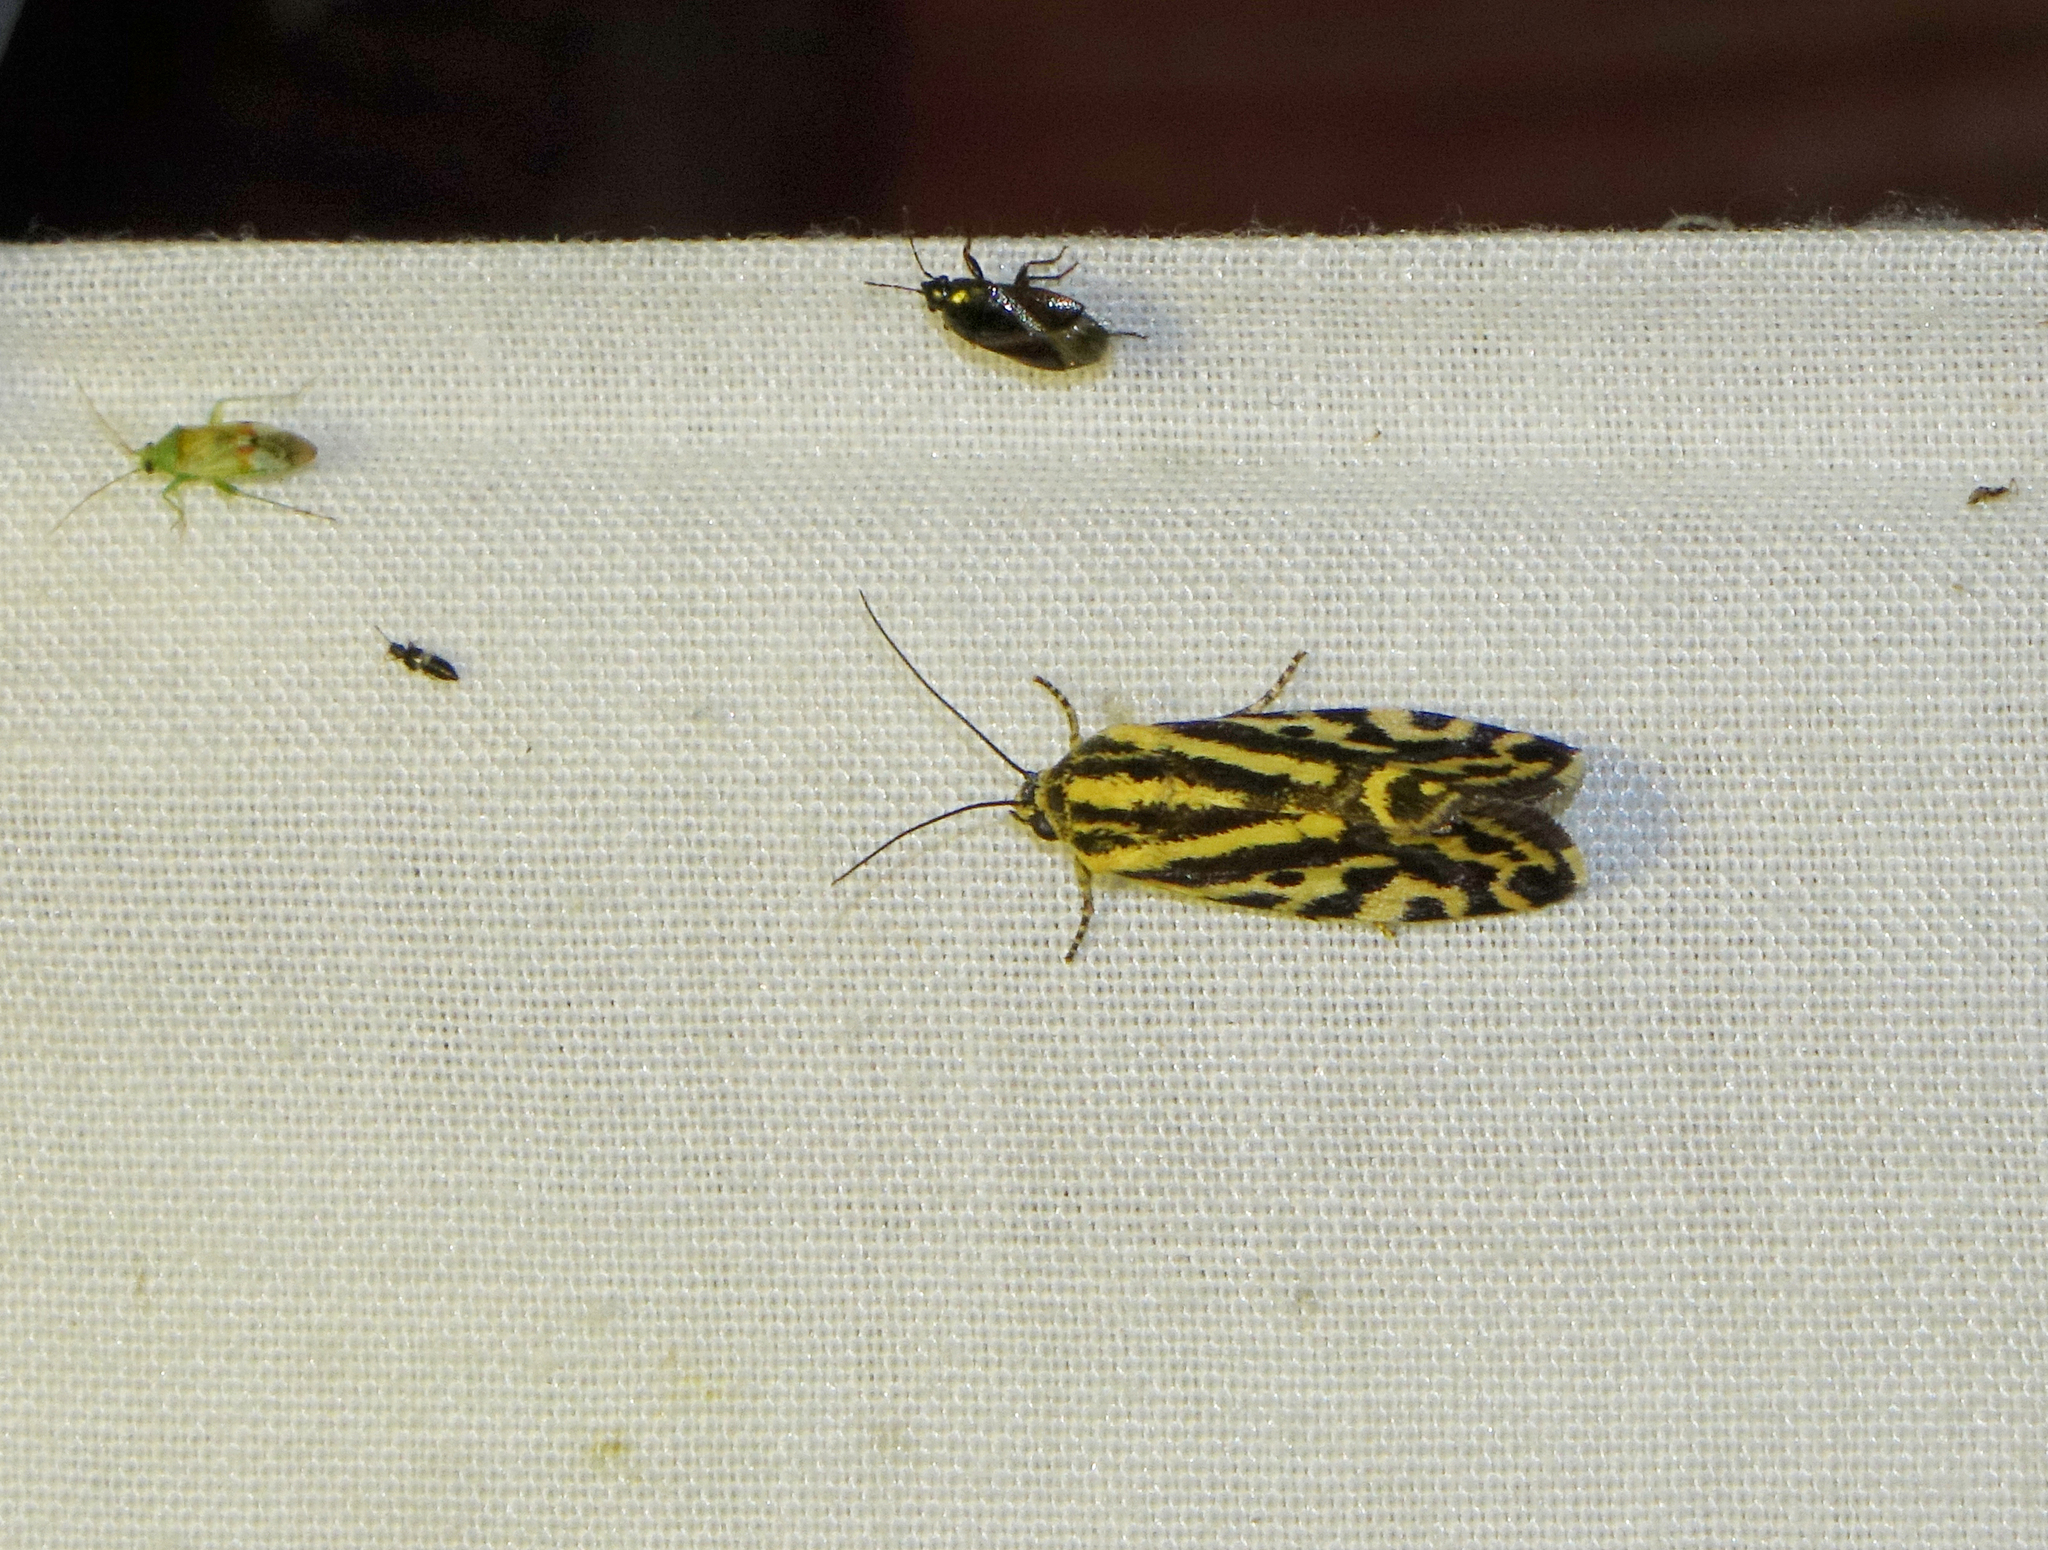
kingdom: Animalia
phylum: Arthropoda
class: Insecta
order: Lepidoptera
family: Noctuidae
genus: Acontia
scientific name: Acontia trabealis
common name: Spotted sulphur
